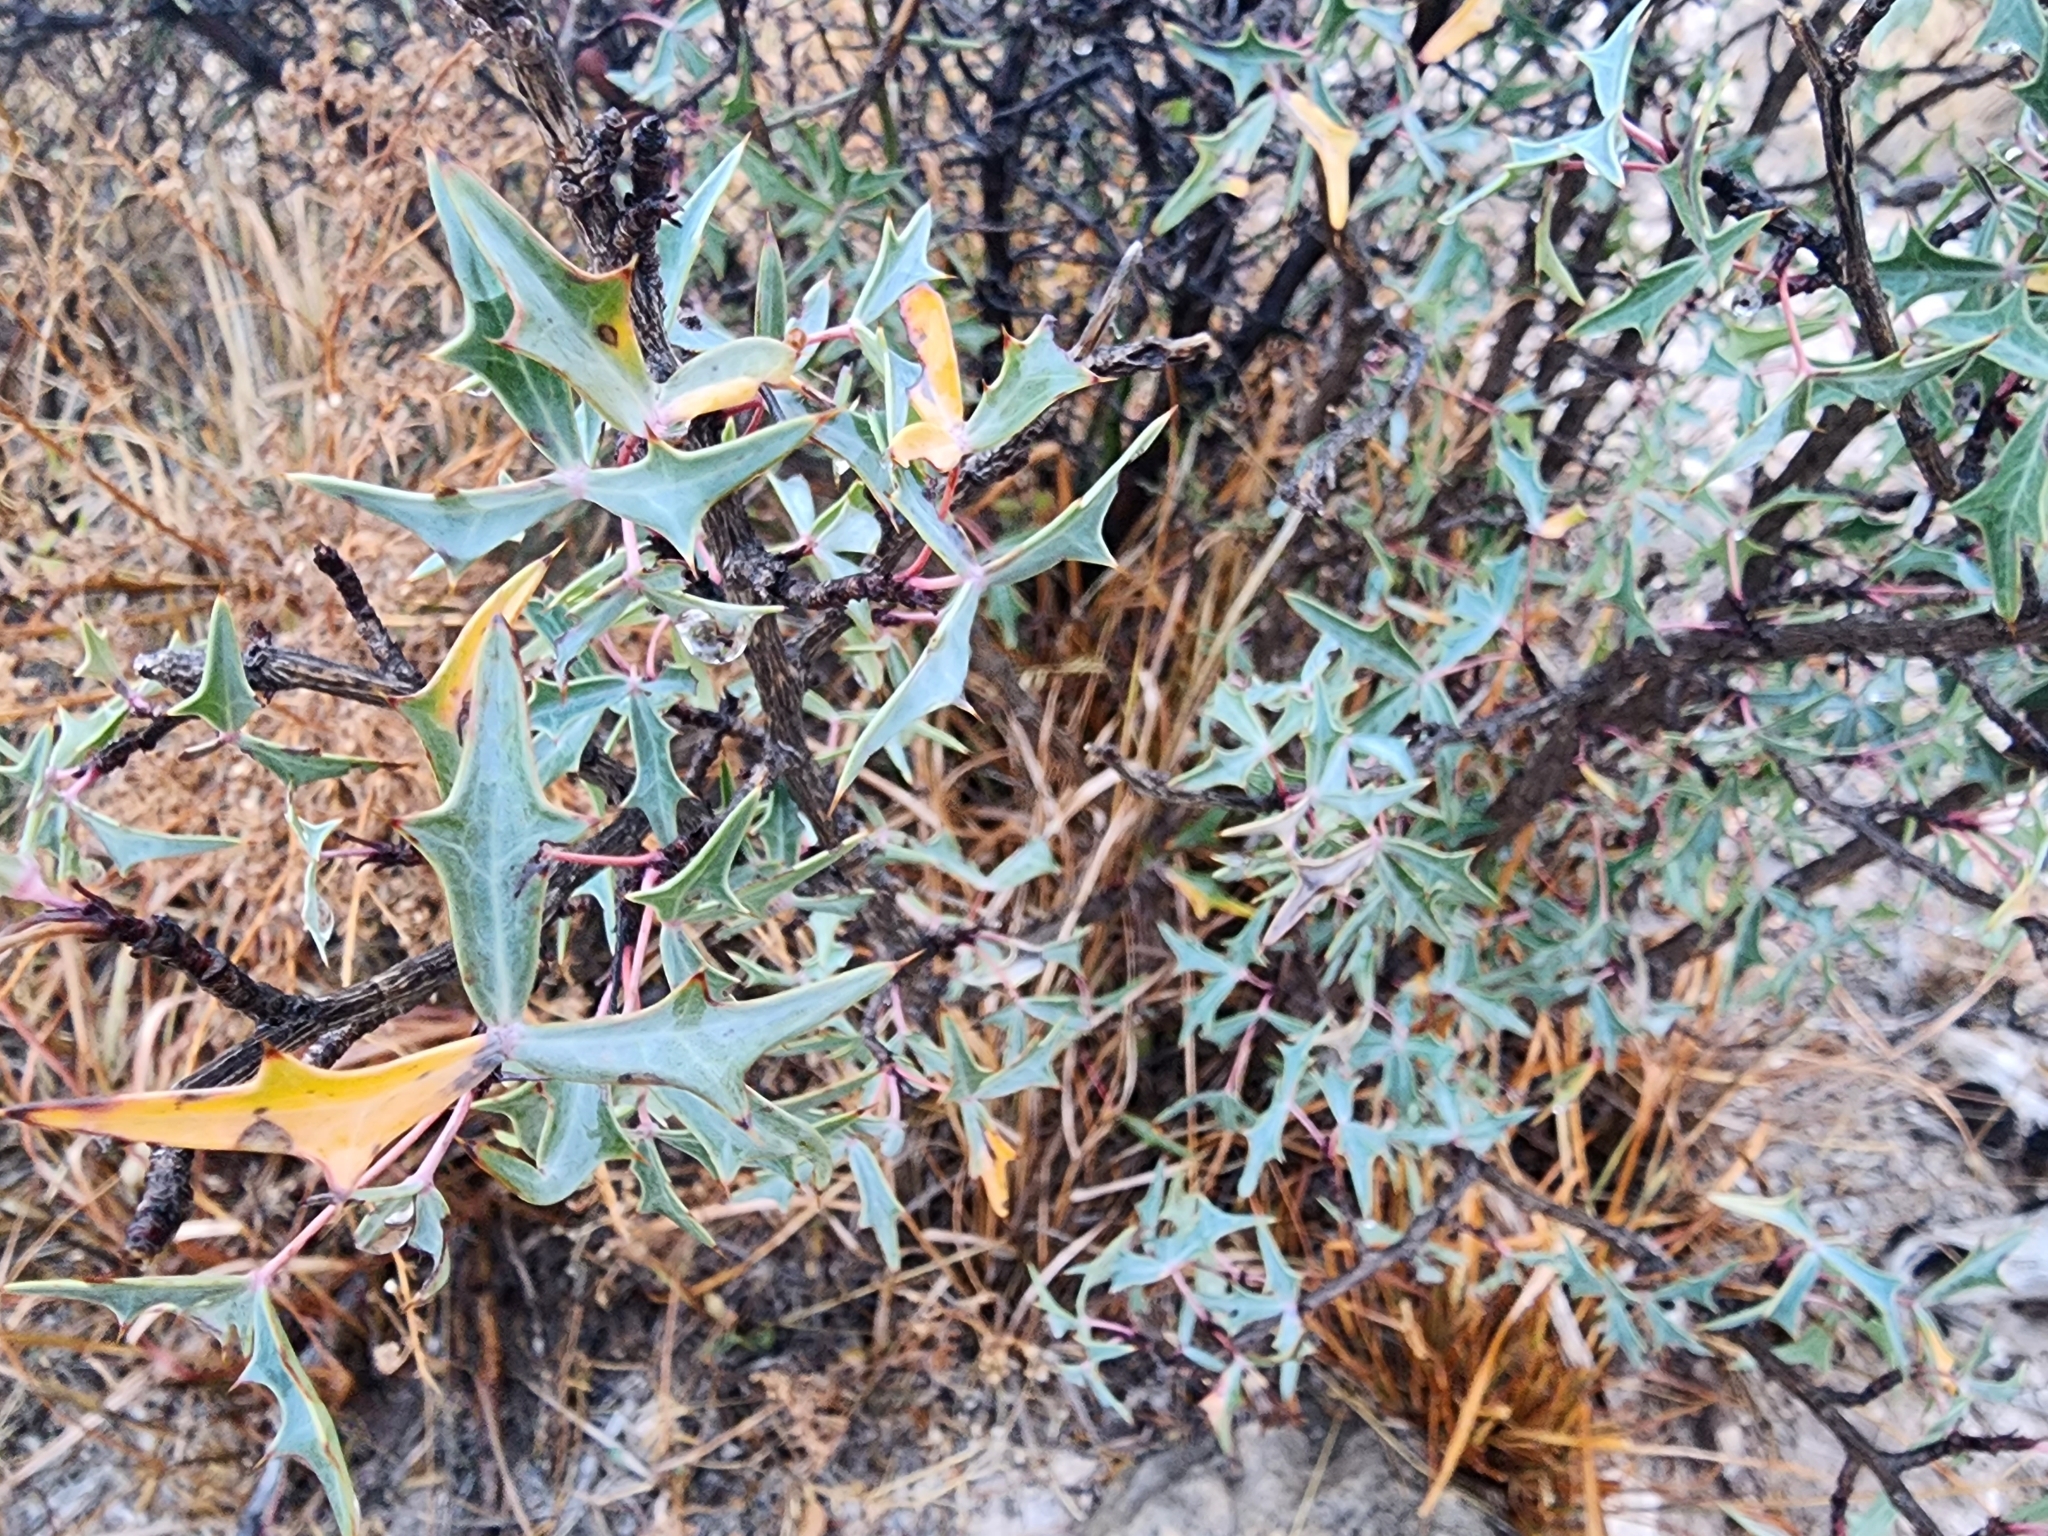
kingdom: Plantae
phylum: Tracheophyta
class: Magnoliopsida
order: Ranunculales
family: Berberidaceae
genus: Alloberberis
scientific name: Alloberberis trifoliolata
